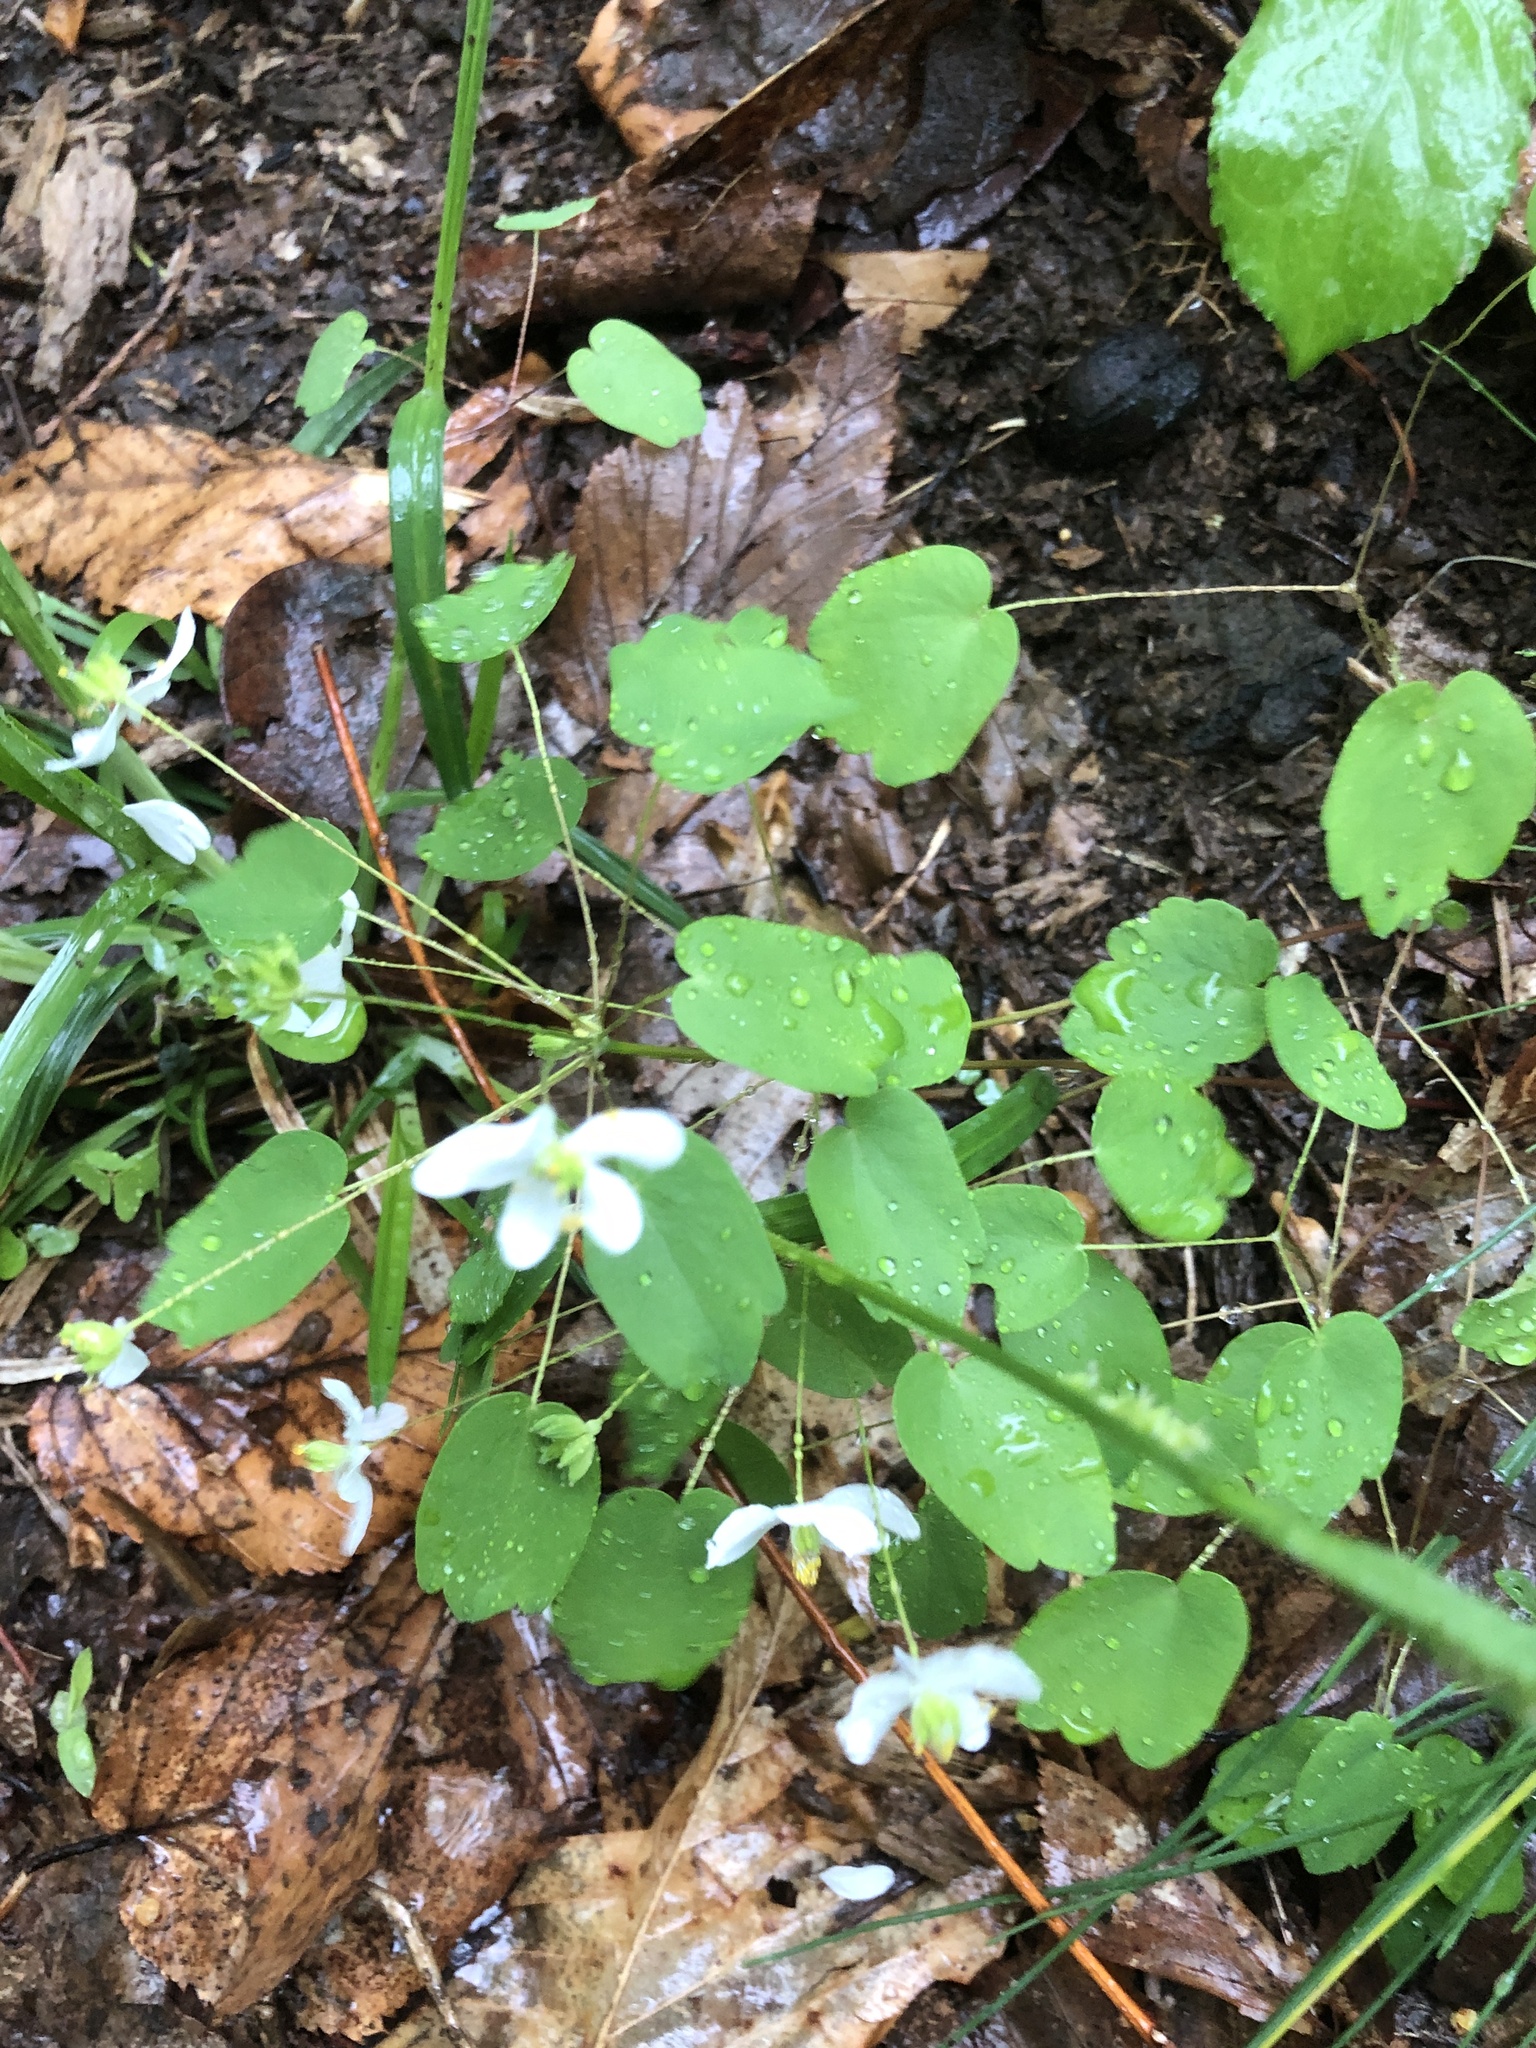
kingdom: Plantae
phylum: Tracheophyta
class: Magnoliopsida
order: Ranunculales
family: Ranunculaceae
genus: Thalictrum
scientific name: Thalictrum thalictroides
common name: Rue-anemone
